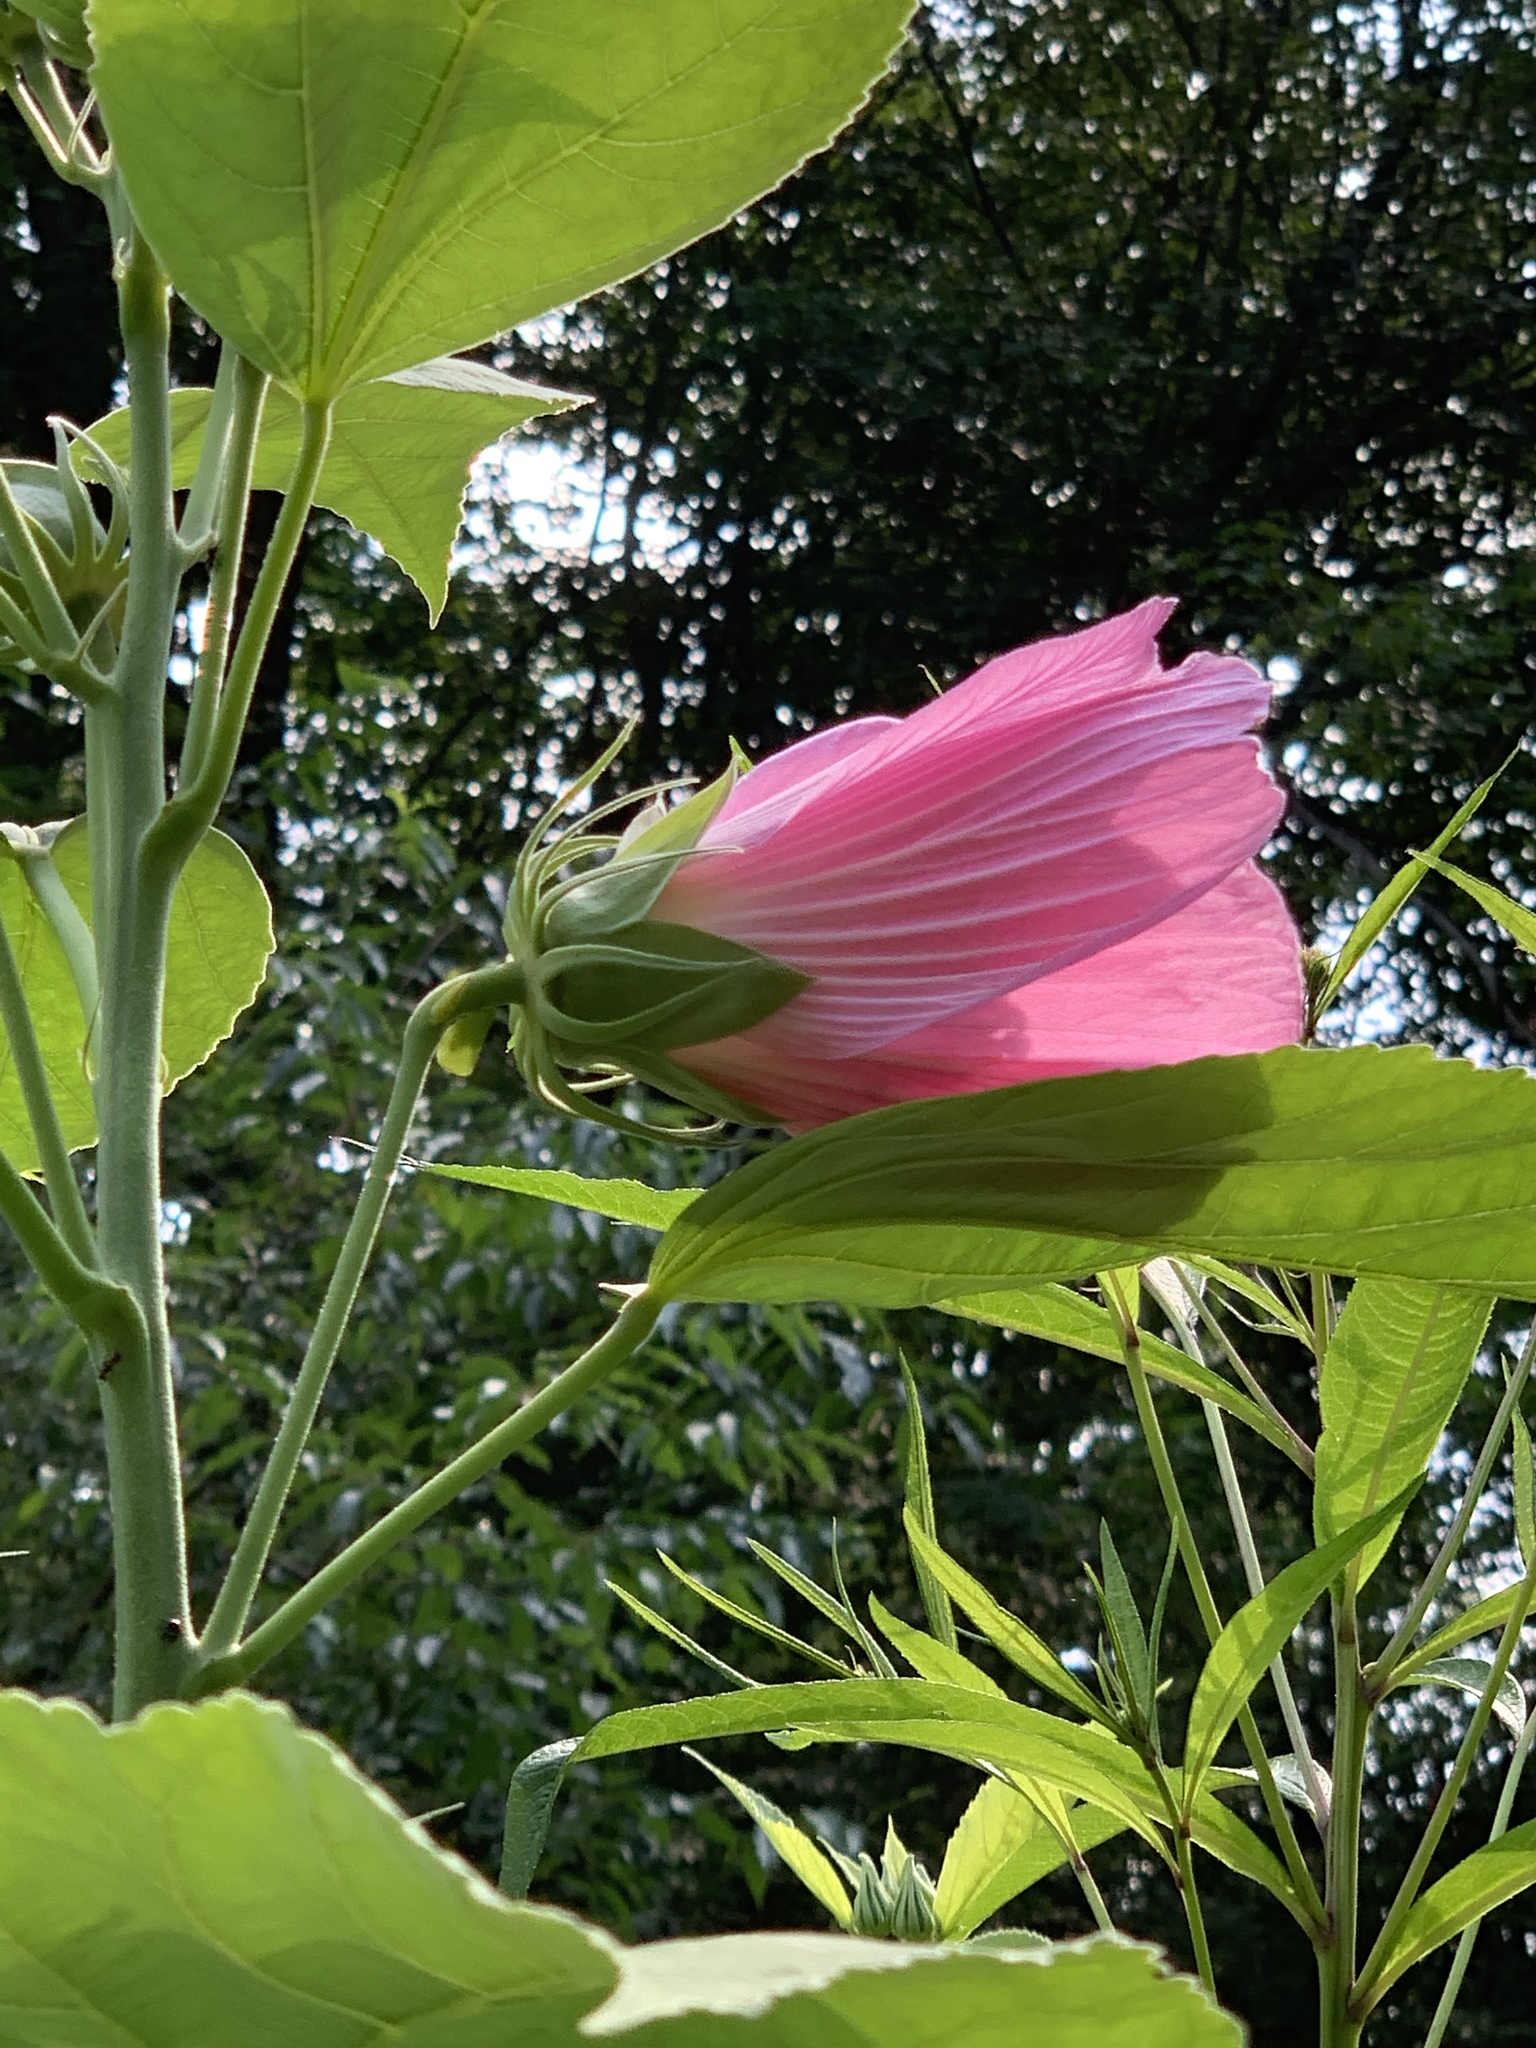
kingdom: Plantae
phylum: Tracheophyta
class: Magnoliopsida
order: Malvales
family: Malvaceae
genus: Hibiscus
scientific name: Hibiscus moscheutos
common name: Common rose-mallow
